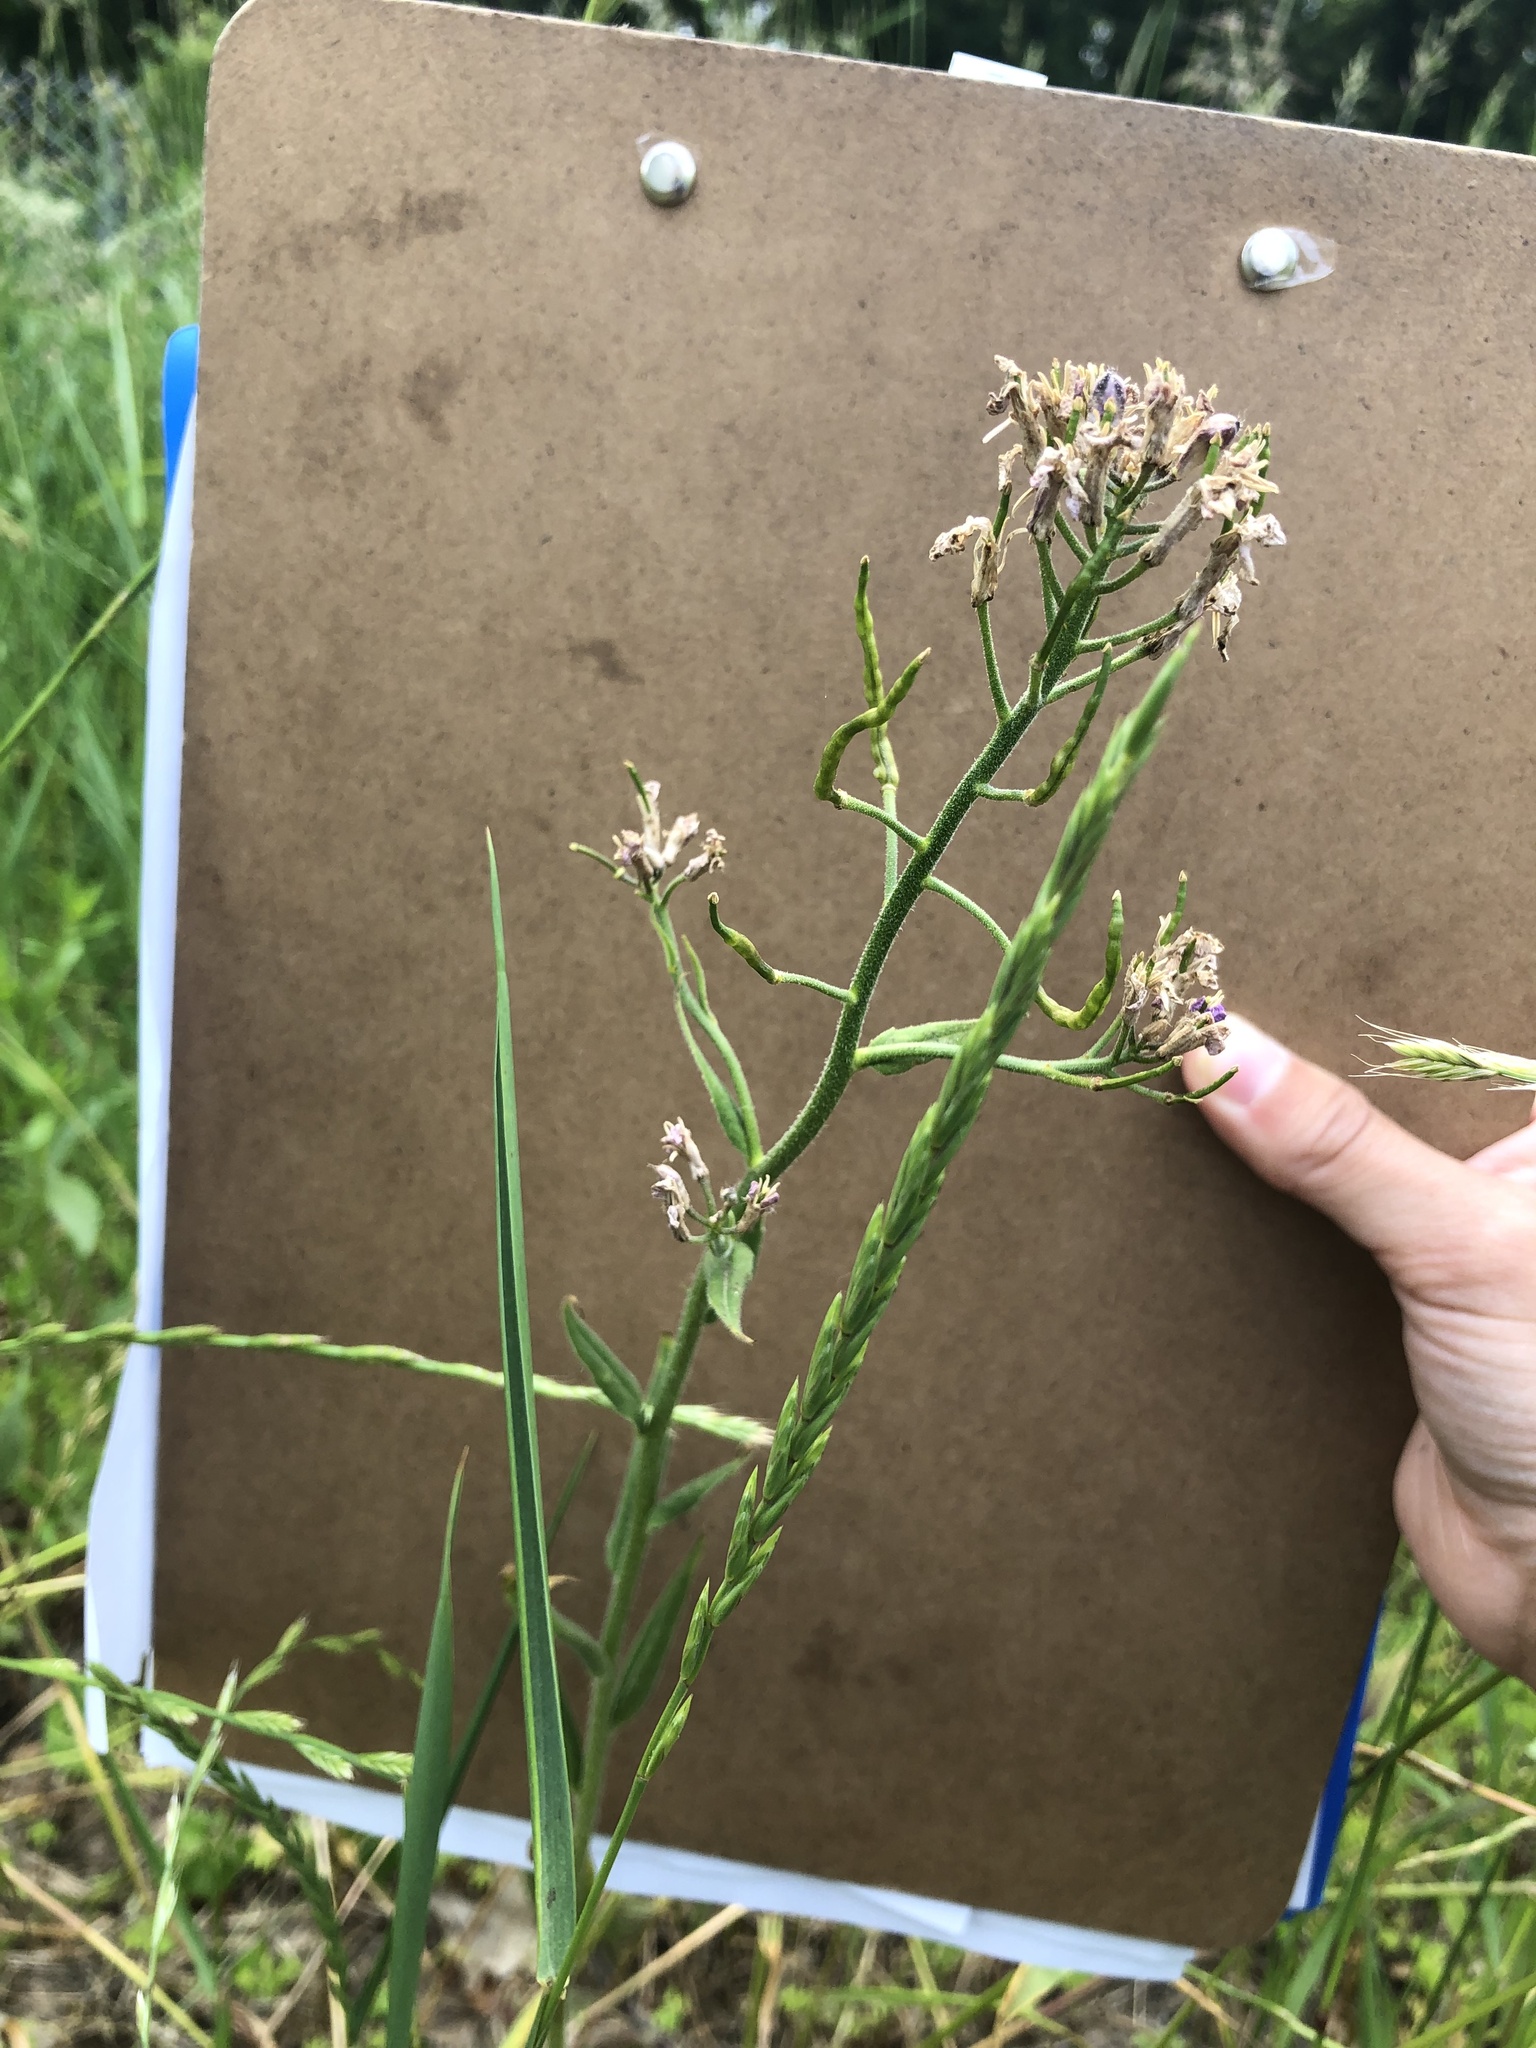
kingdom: Plantae
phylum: Tracheophyta
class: Magnoliopsida
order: Brassicales
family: Brassicaceae
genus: Hesperis
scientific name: Hesperis matronalis
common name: Dame's-violet
